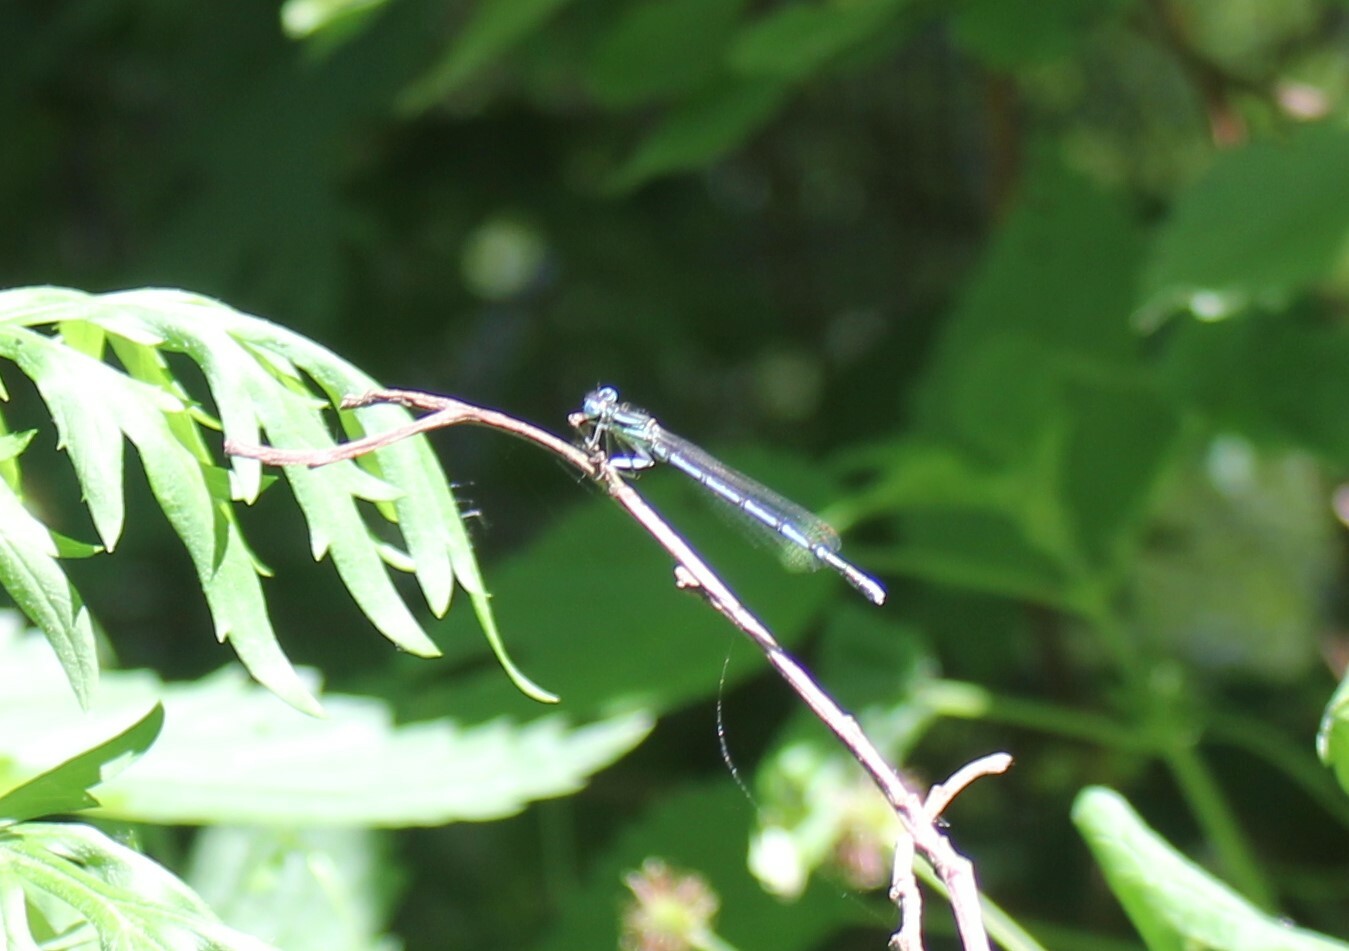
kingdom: Animalia
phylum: Arthropoda
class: Insecta
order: Odonata
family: Platycnemididae
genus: Platycnemis
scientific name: Platycnemis pennipes
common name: White-legged damselfly
